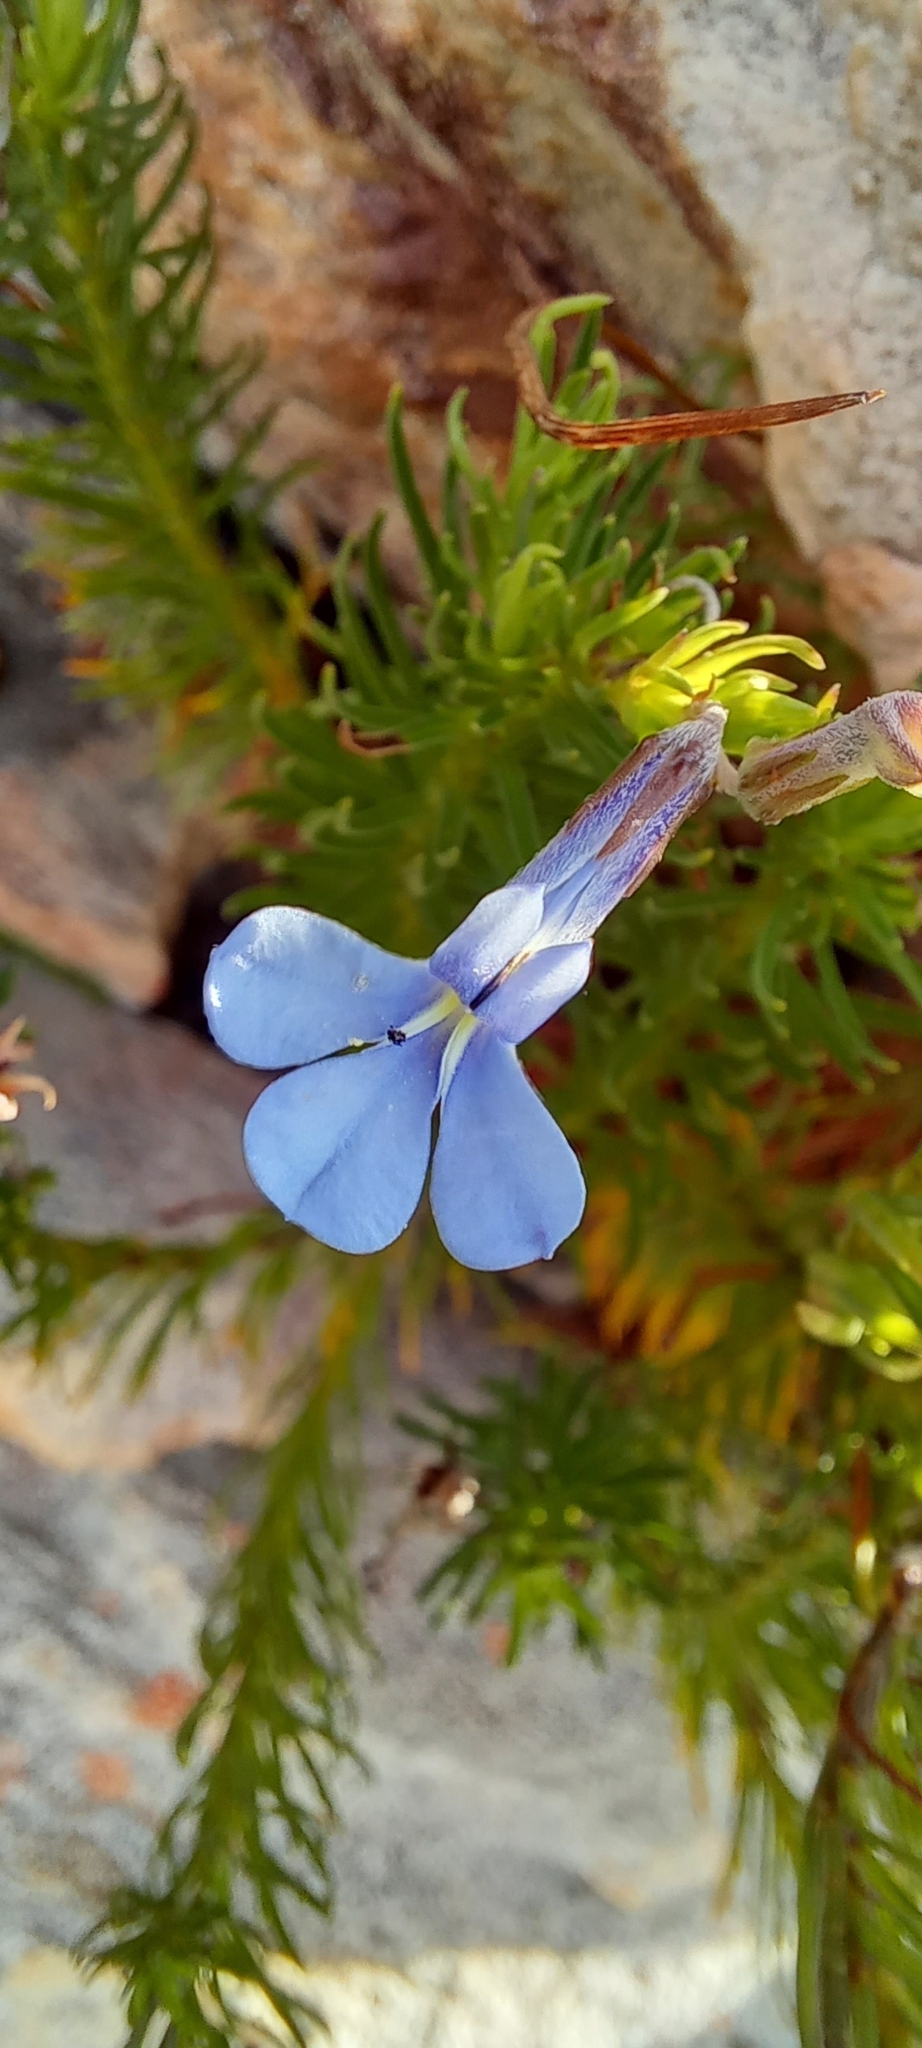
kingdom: Plantae
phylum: Tracheophyta
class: Magnoliopsida
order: Asterales
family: Campanulaceae
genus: Lobelia
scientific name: Lobelia pinifolia
